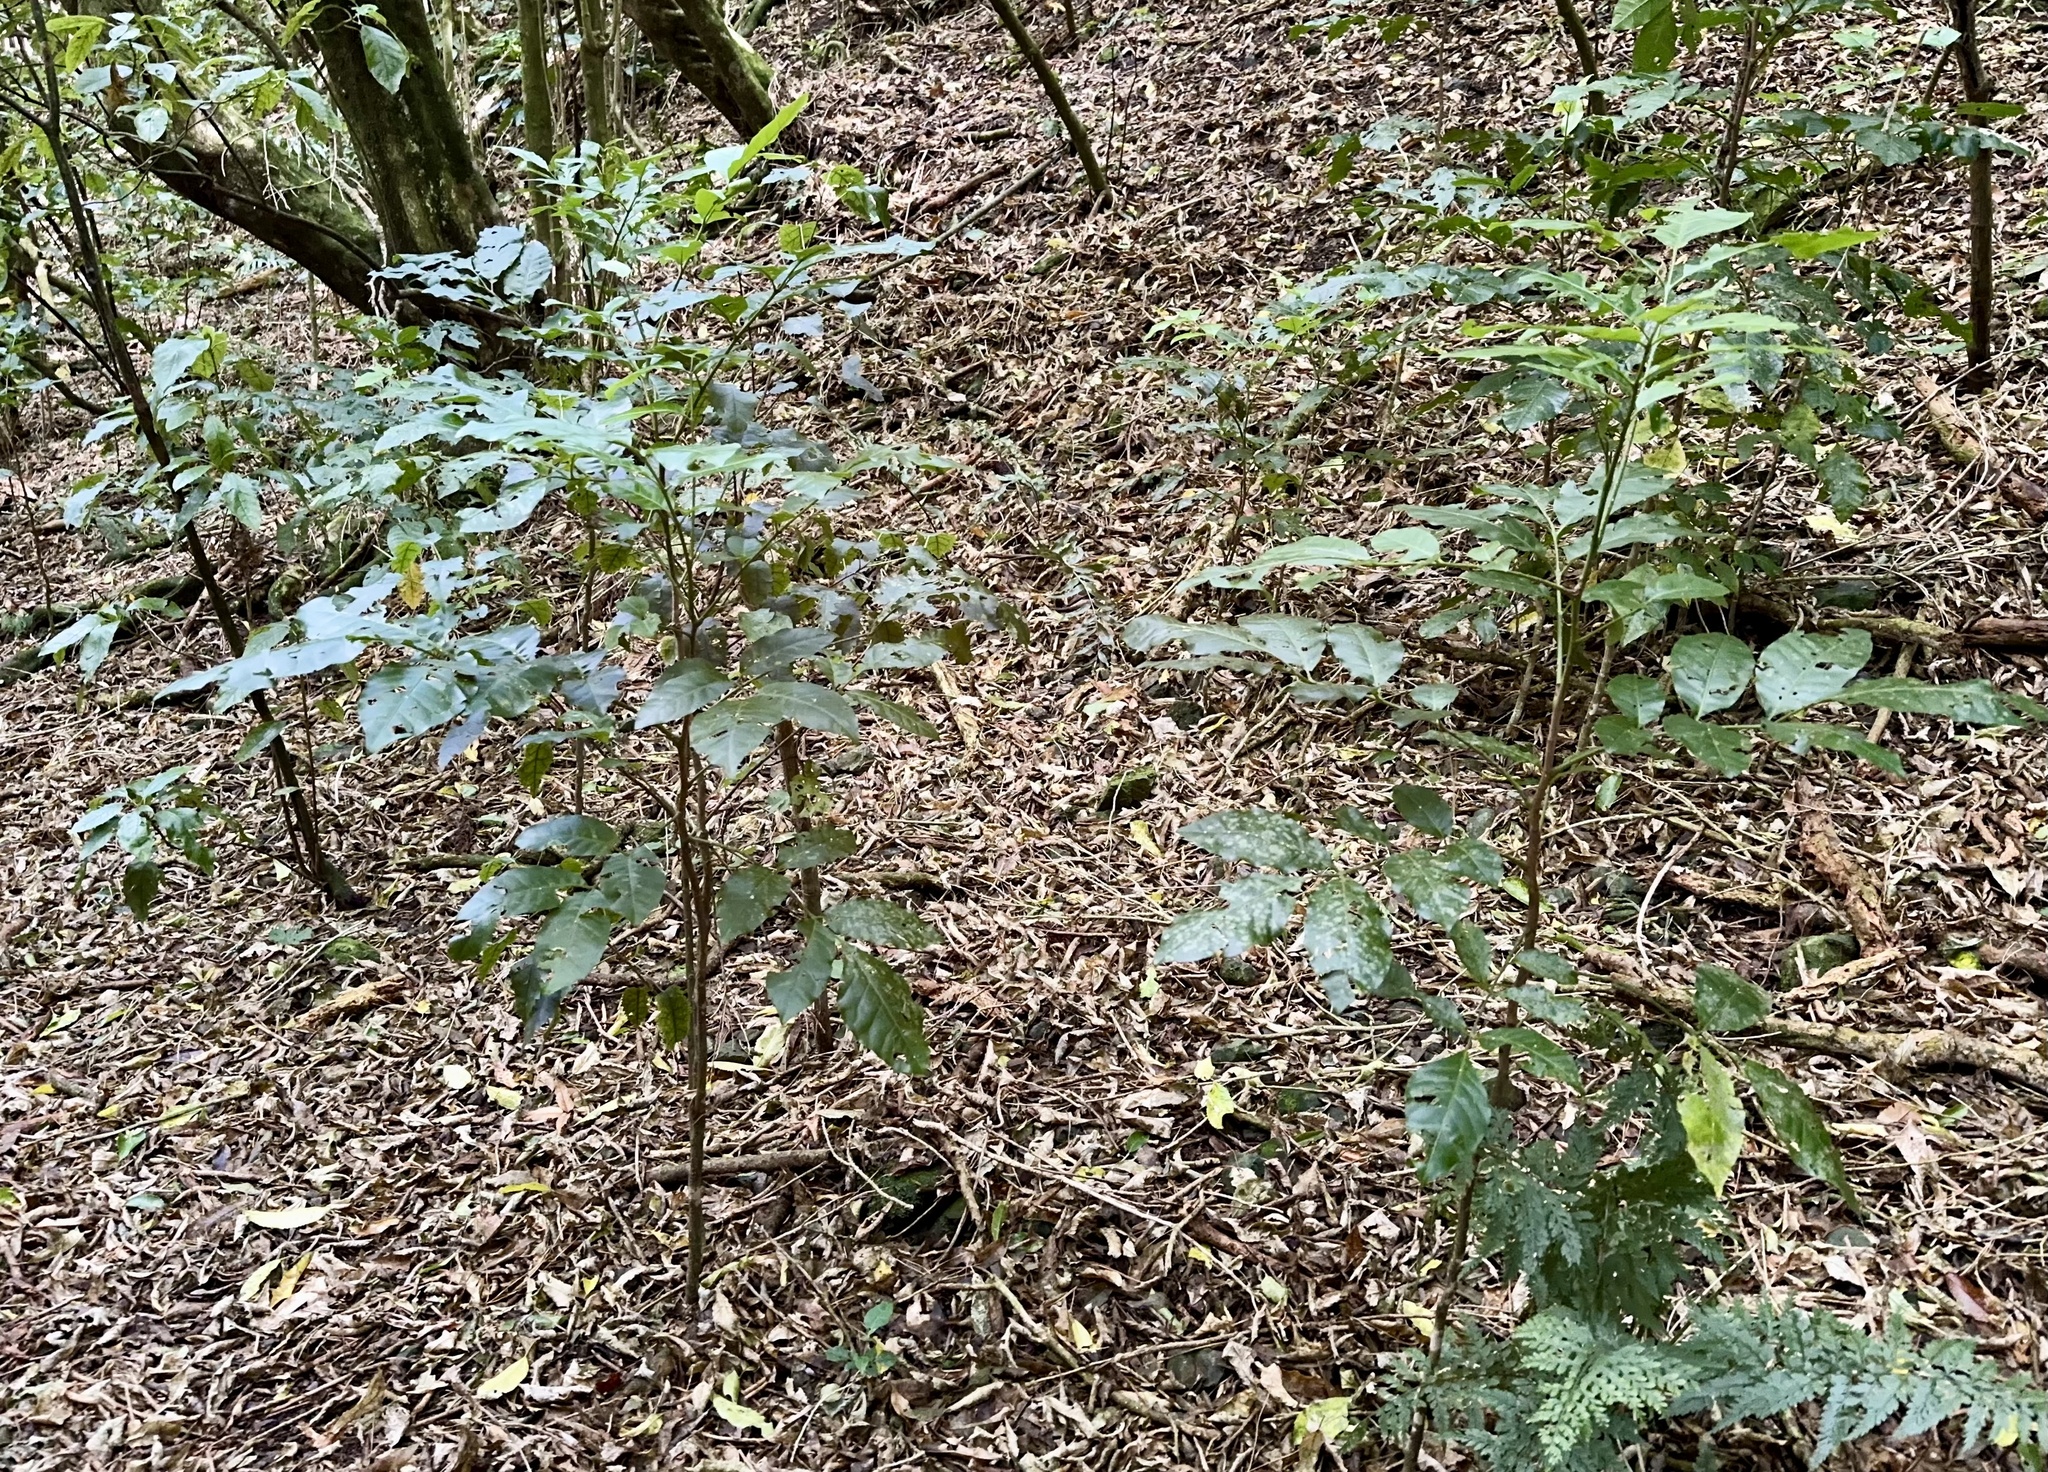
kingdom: Plantae
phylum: Tracheophyta
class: Magnoliopsida
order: Sapindales
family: Meliaceae
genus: Didymocheton
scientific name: Didymocheton spectabilis
